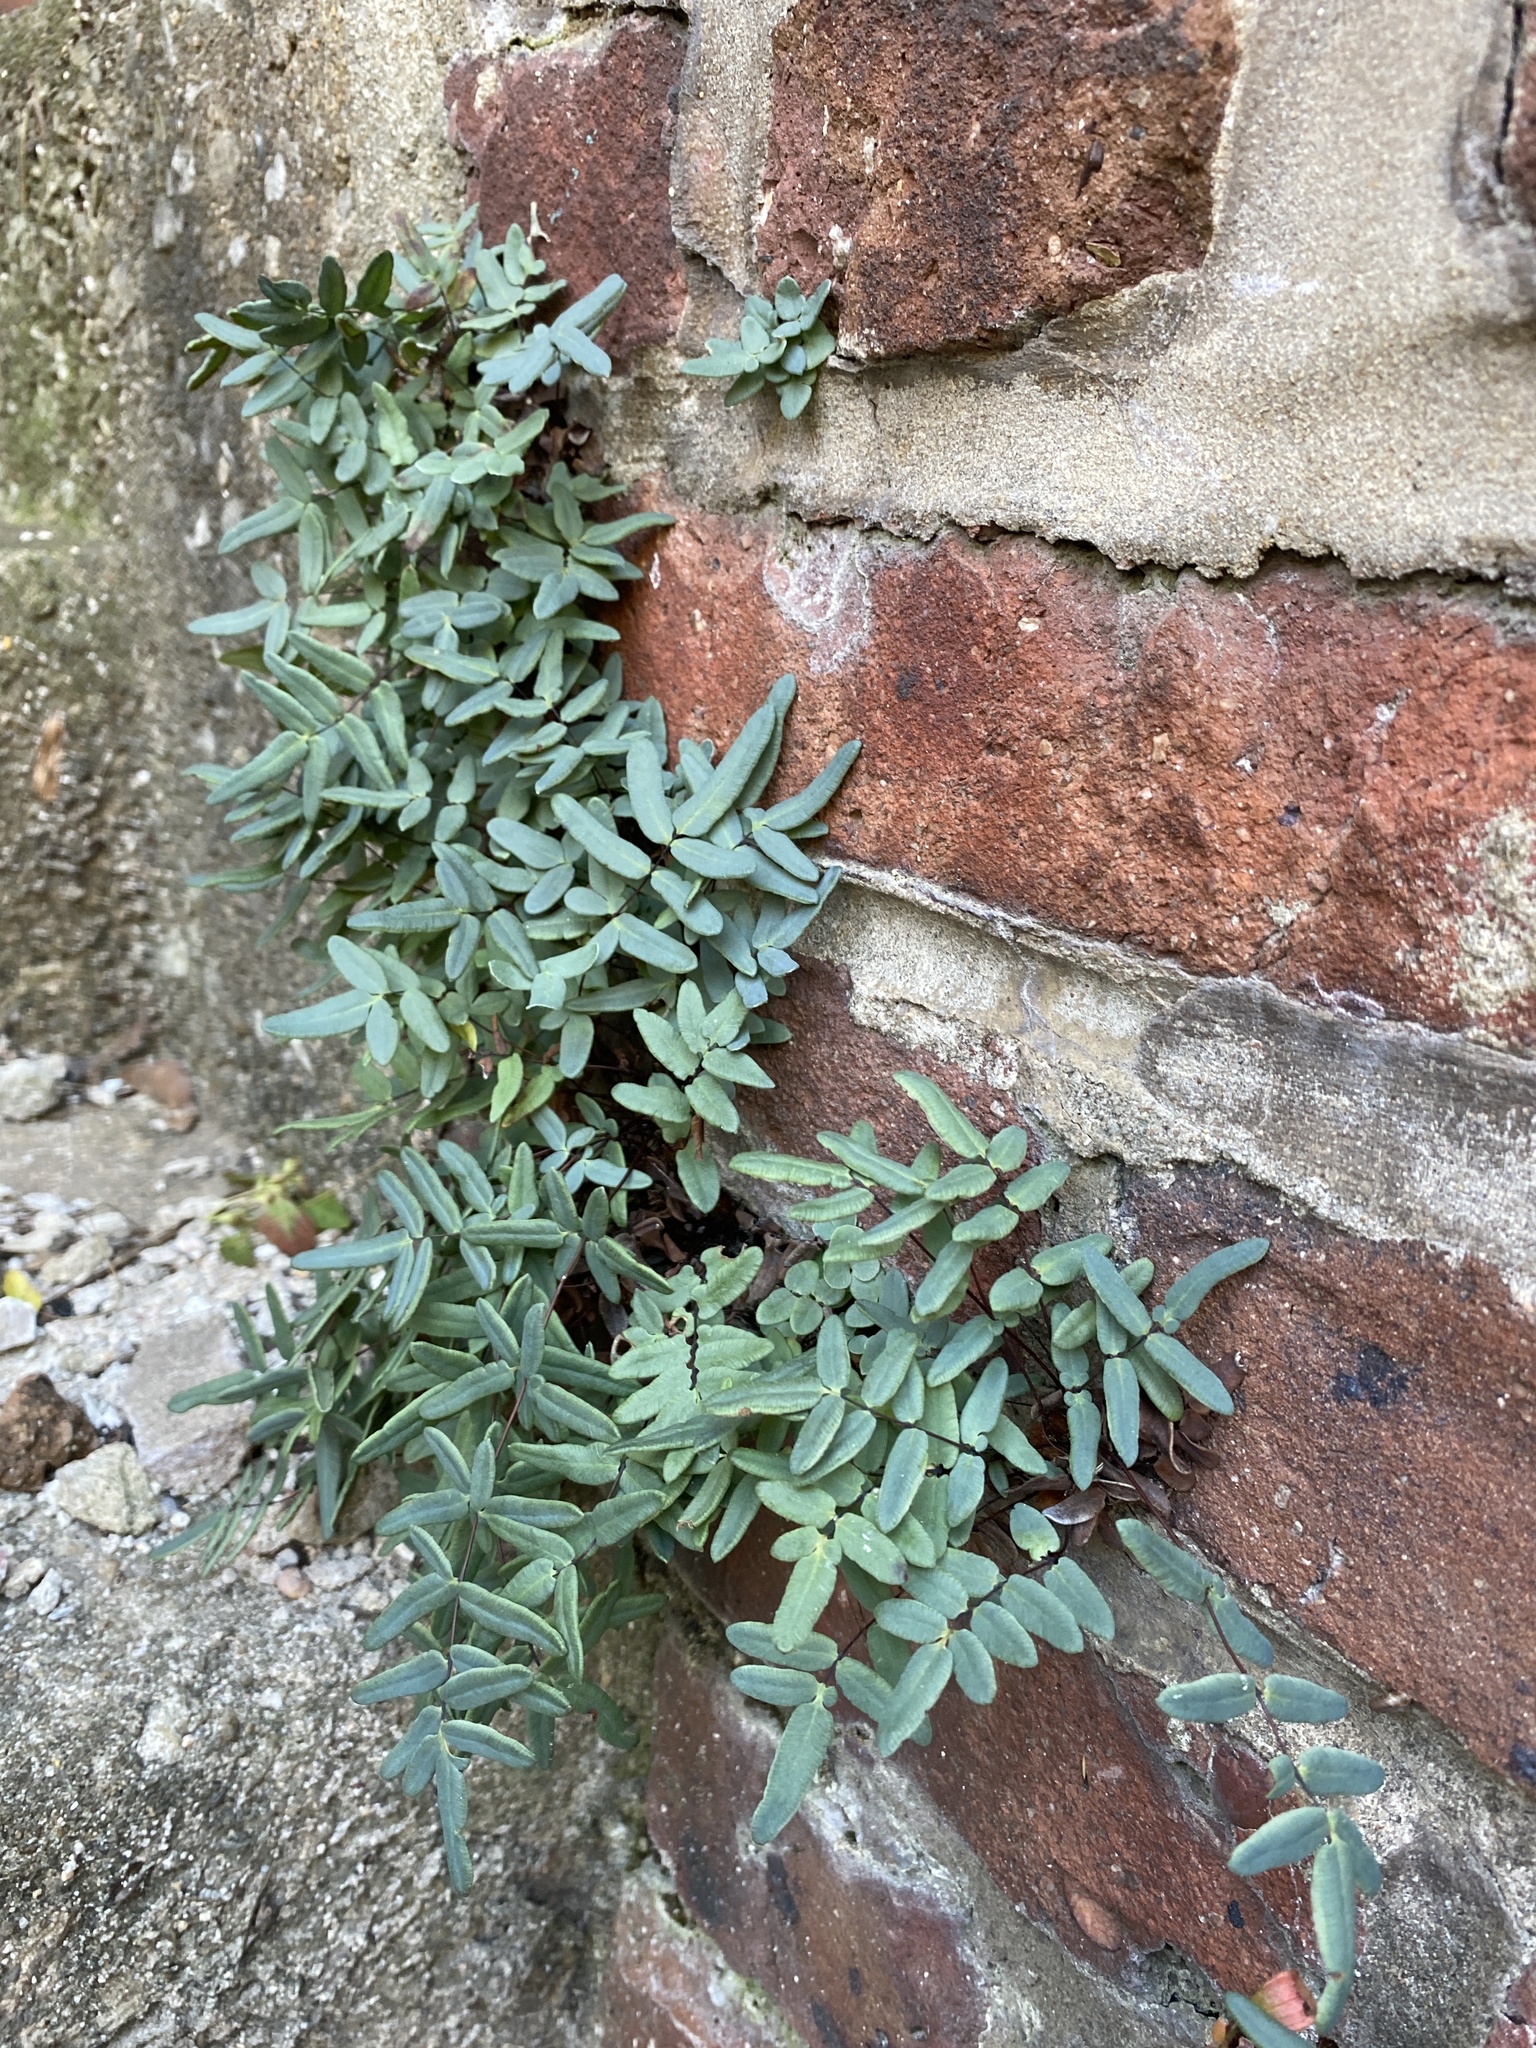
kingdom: Plantae
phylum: Tracheophyta
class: Polypodiopsida
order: Polypodiales
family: Pteridaceae
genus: Pellaea
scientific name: Pellaea glabella
